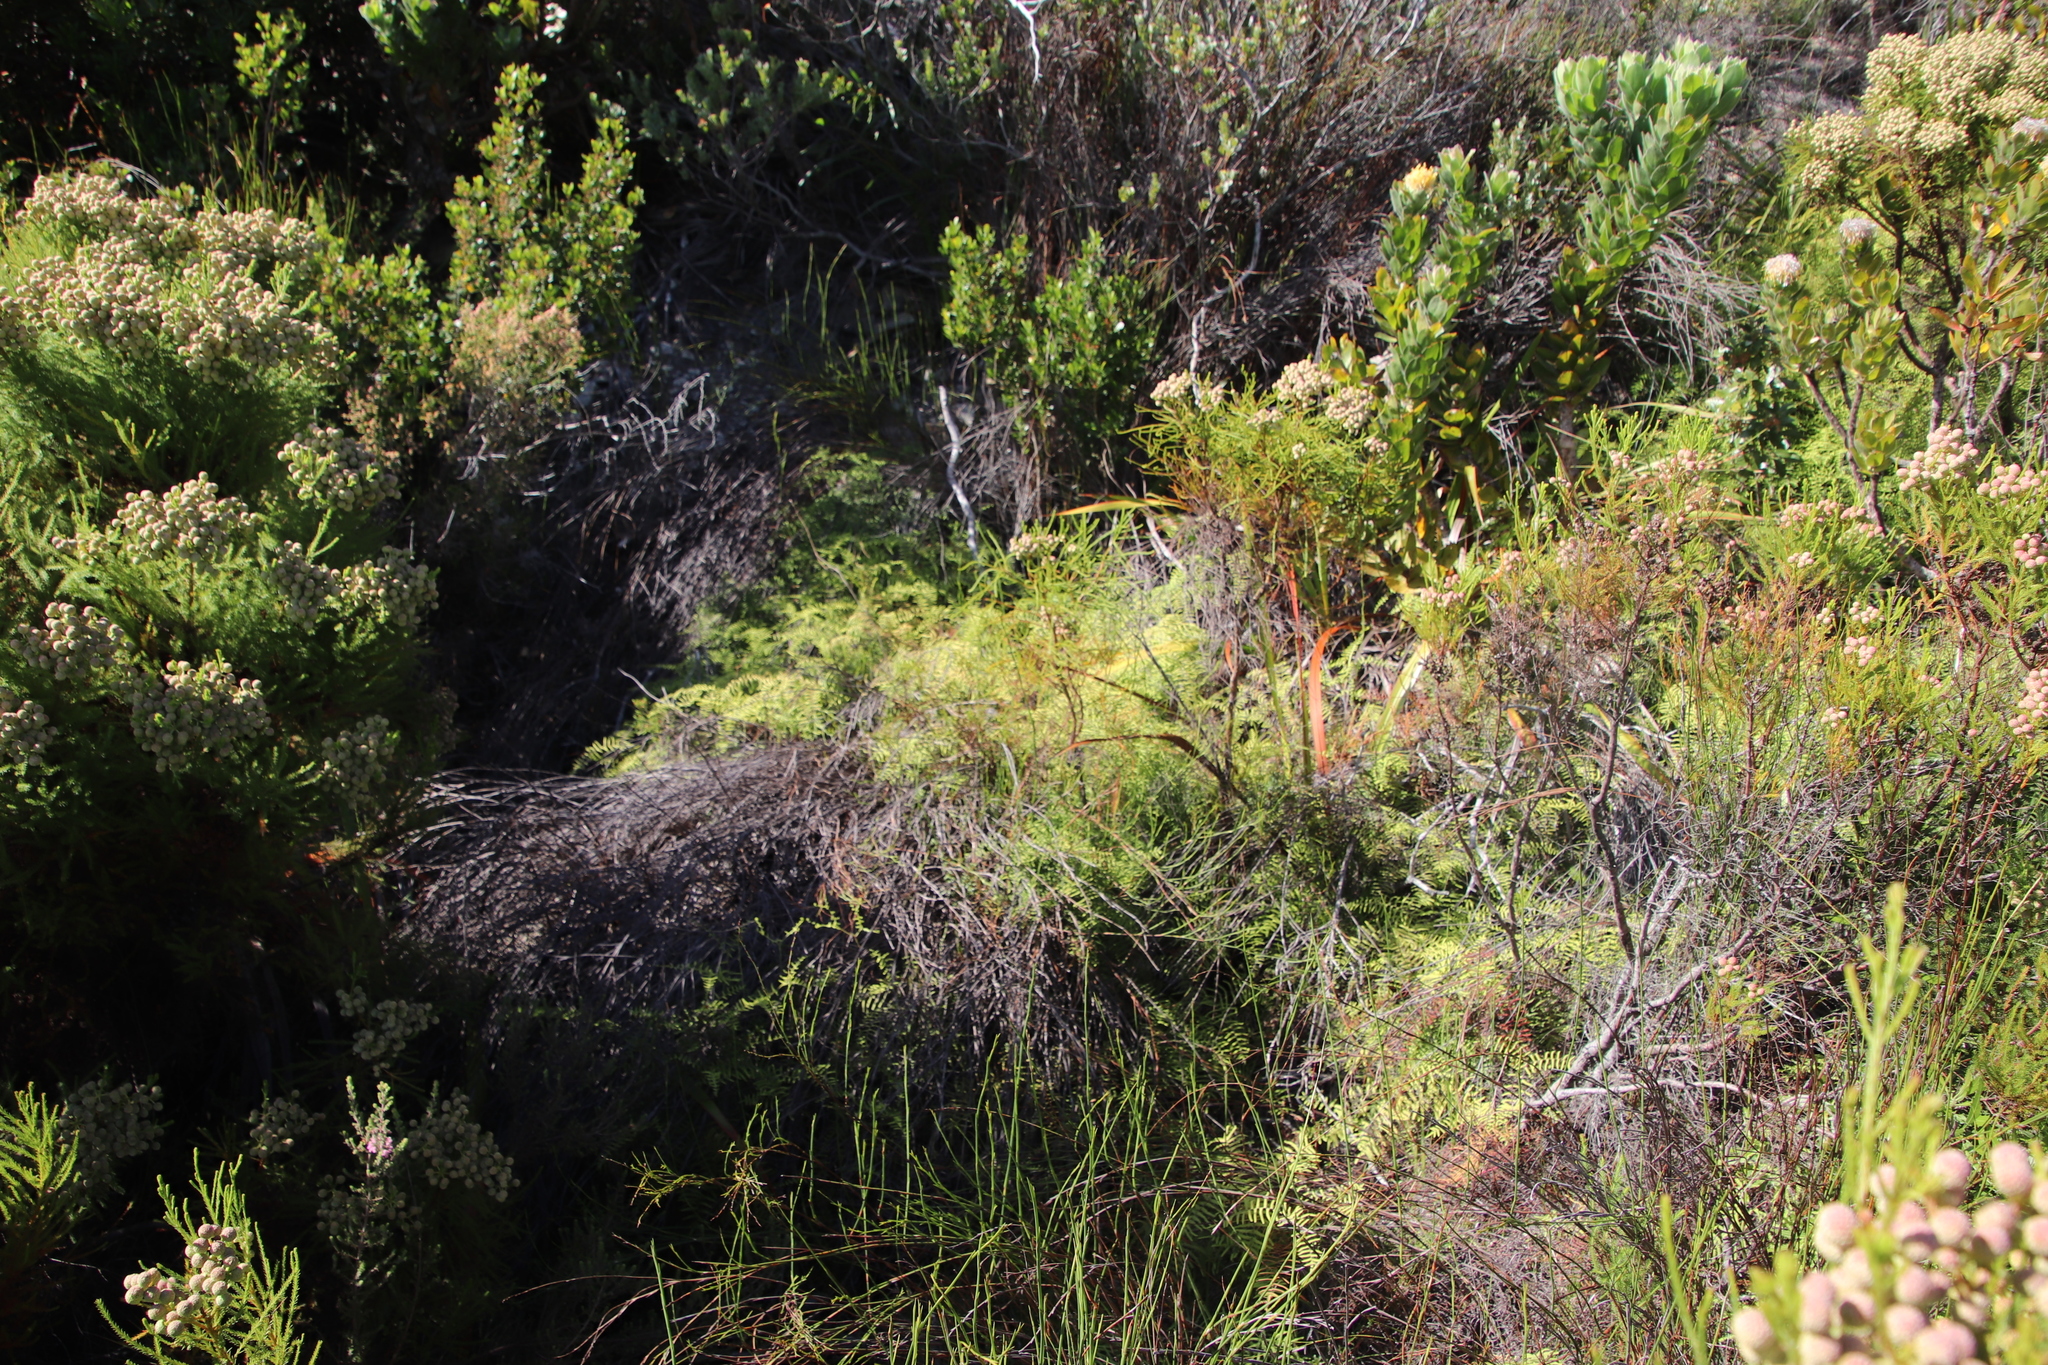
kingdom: Plantae
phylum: Tracheophyta
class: Magnoliopsida
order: Ericales
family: Ericaceae
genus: Erica
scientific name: Erica hirtiflora
